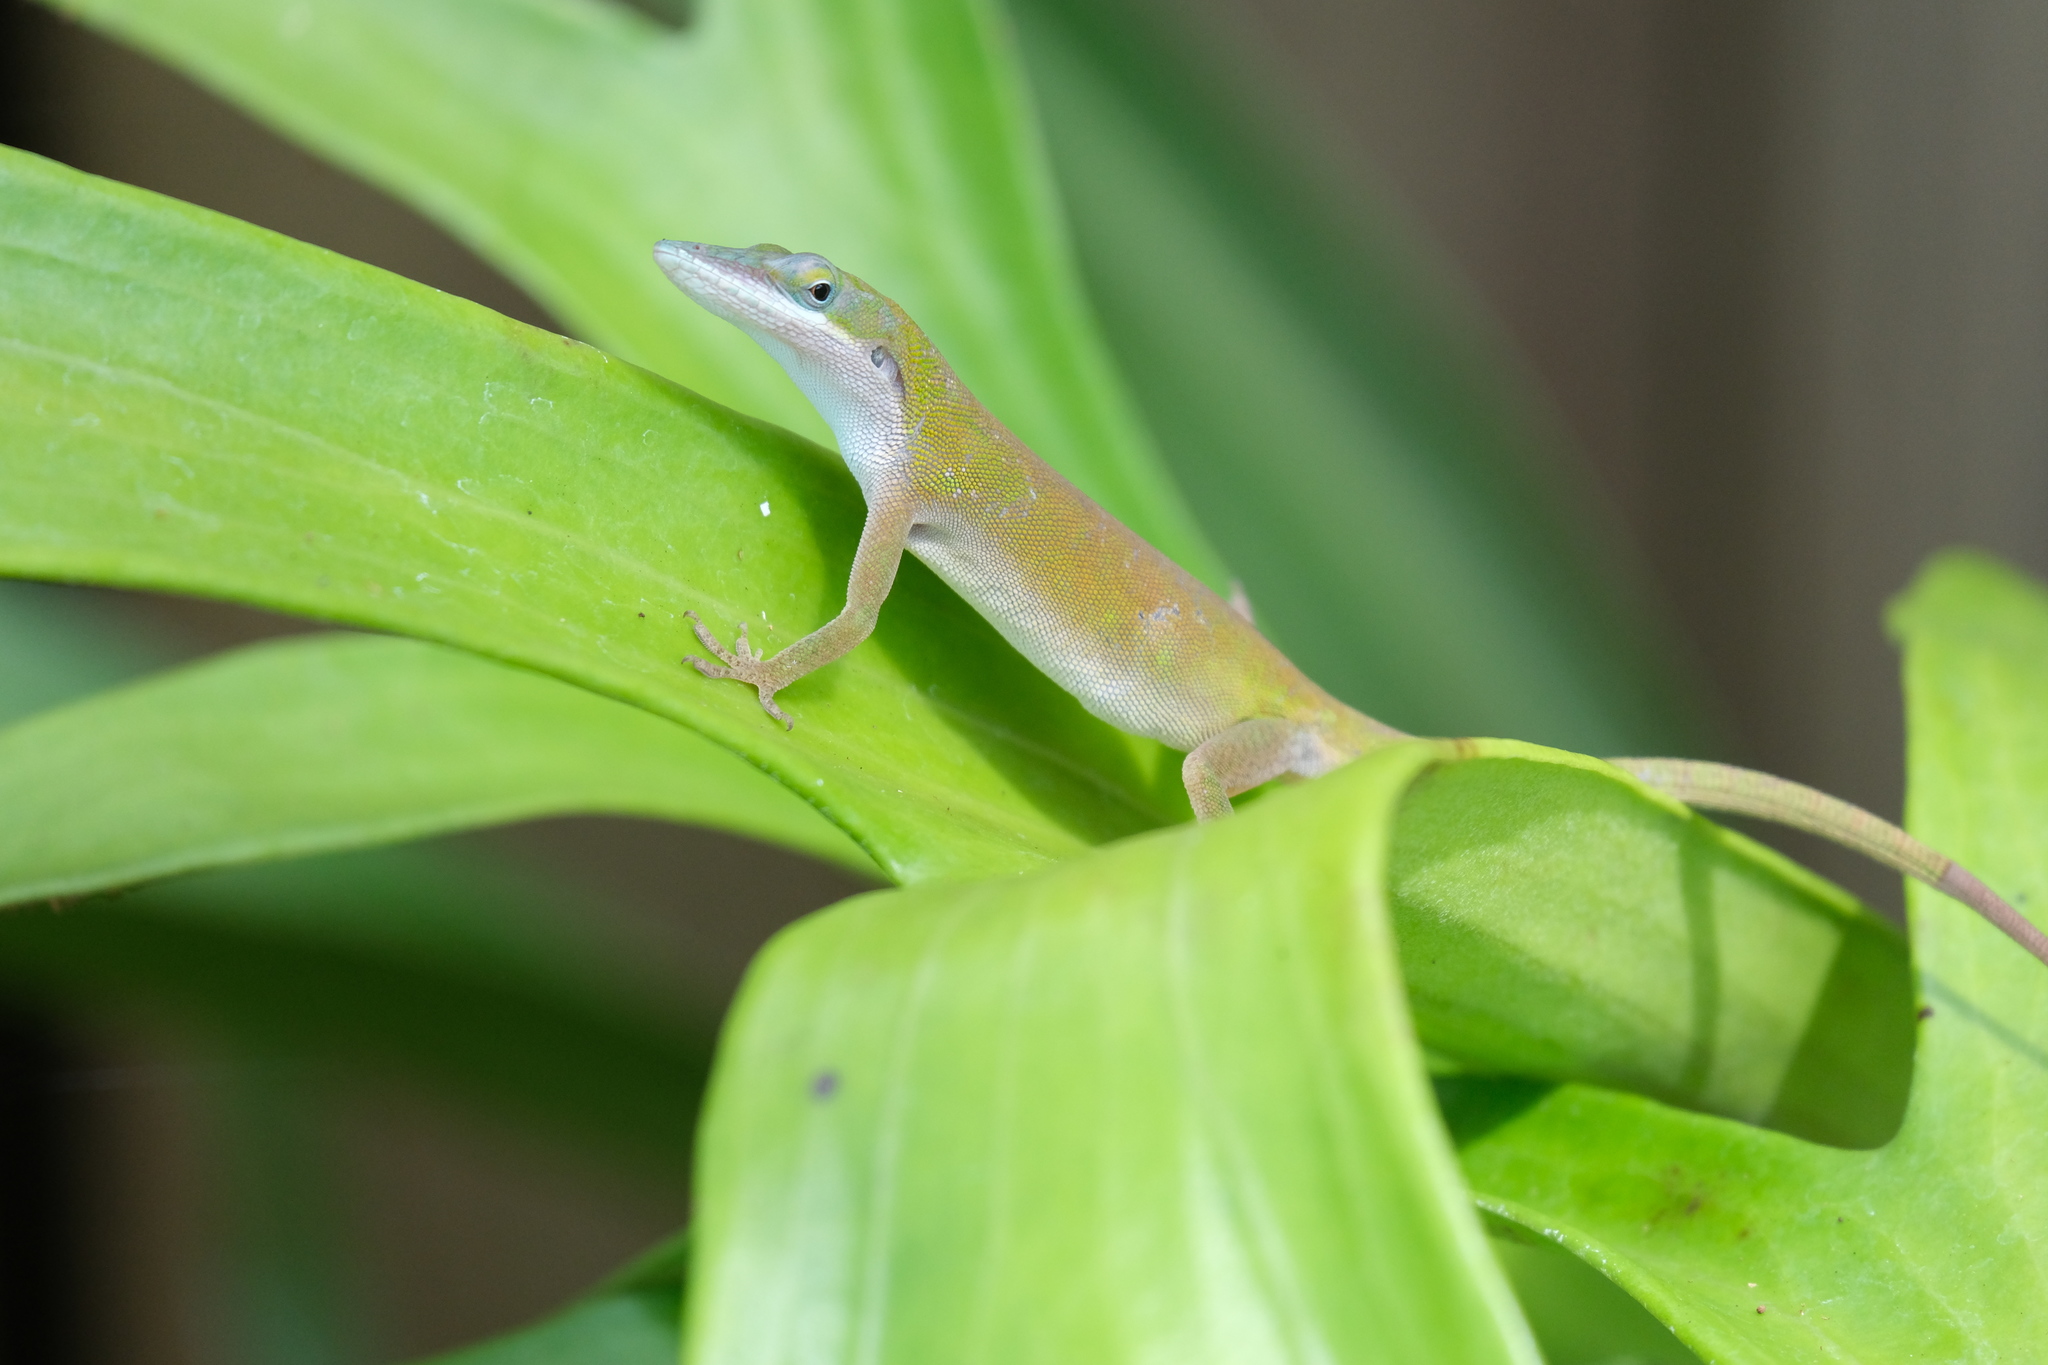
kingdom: Animalia
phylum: Chordata
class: Squamata
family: Dactyloidae
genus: Anolis
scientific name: Anolis allisoni
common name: Allison's anole
